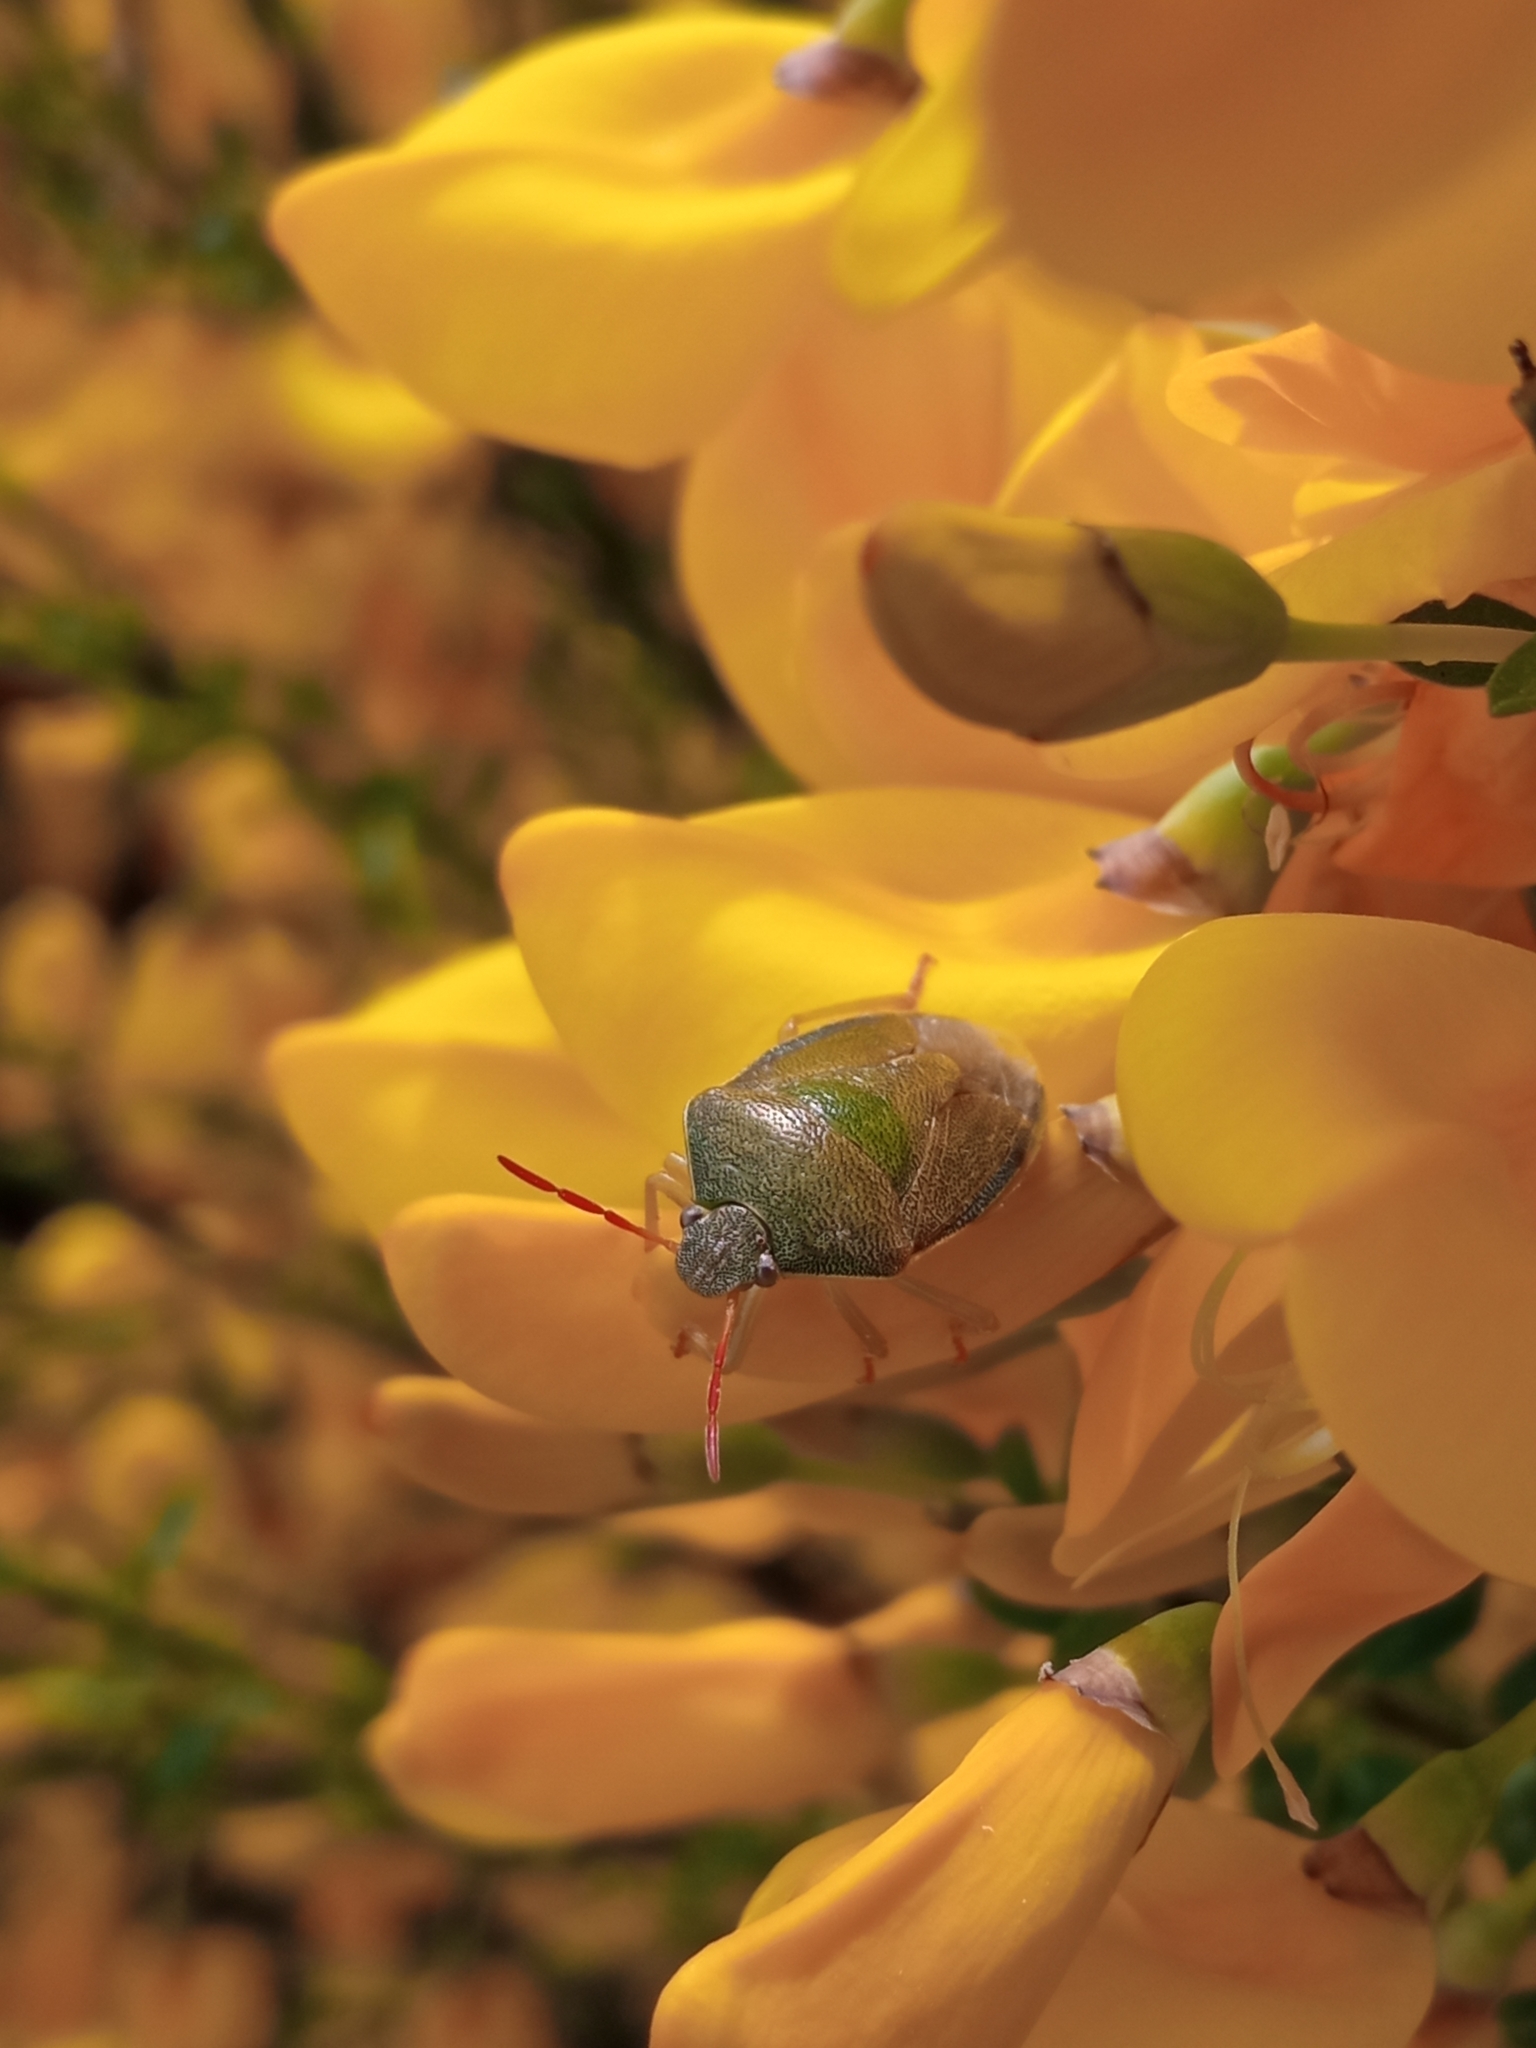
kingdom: Animalia
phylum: Arthropoda
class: Insecta
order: Hemiptera
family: Pentatomidae
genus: Piezodorus
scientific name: Piezodorus lituratus
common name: Stink bug
